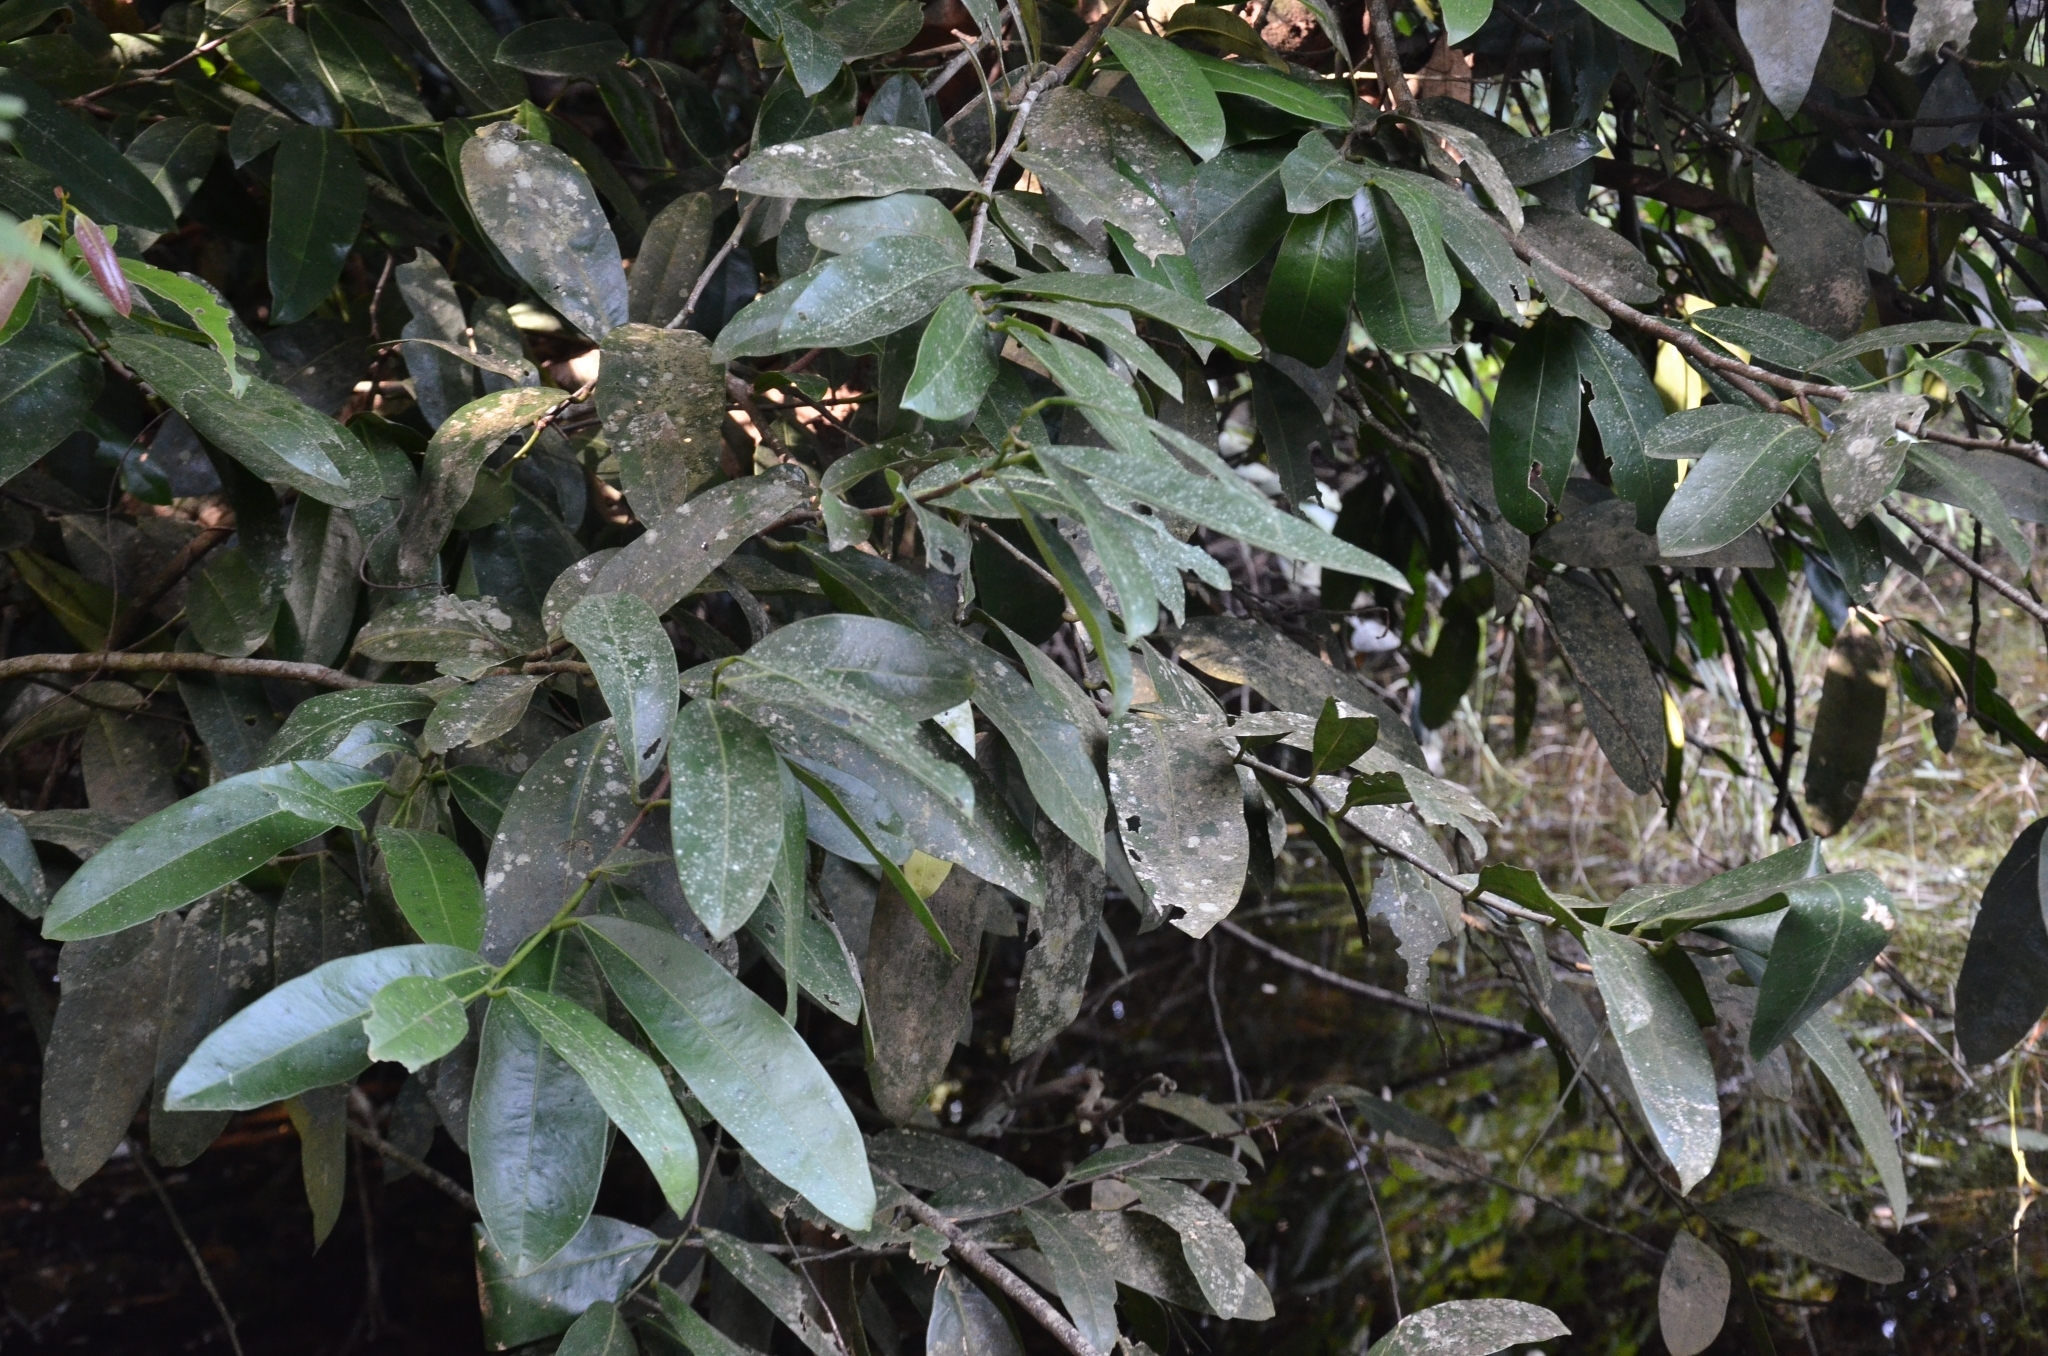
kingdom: Plantae
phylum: Tracheophyta
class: Magnoliopsida
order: Sapindales
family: Simaroubaceae
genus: Samadera
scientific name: Samadera indica
